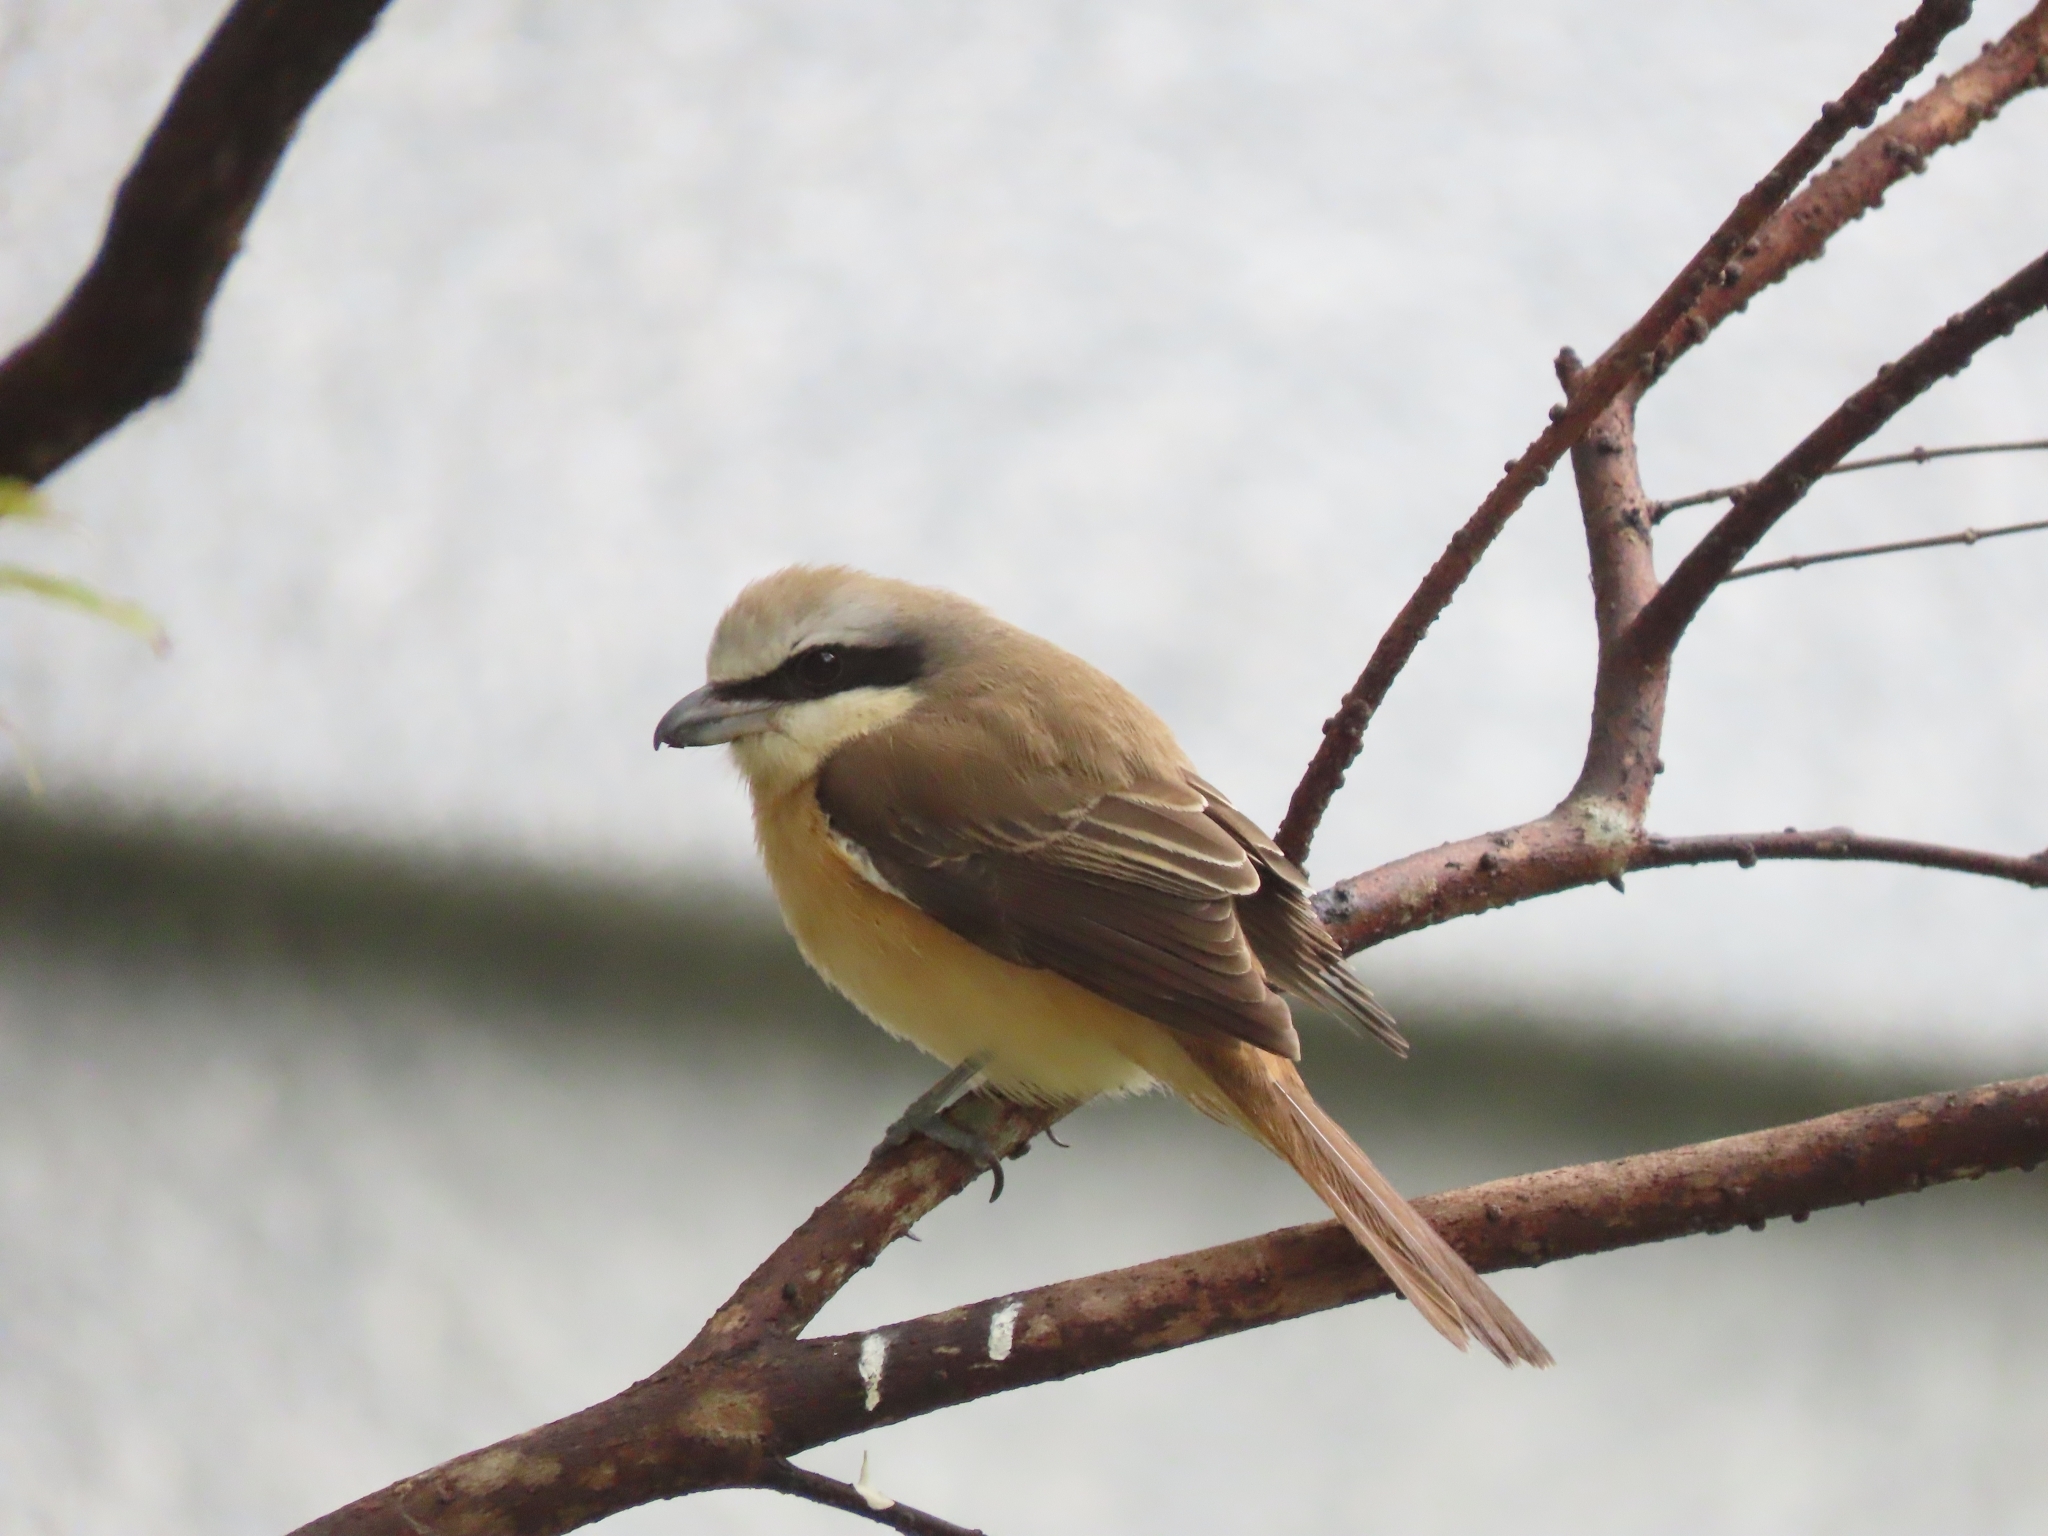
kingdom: Animalia
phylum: Chordata
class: Aves
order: Passeriformes
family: Laniidae
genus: Lanius
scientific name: Lanius cristatus
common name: Brown shrike
